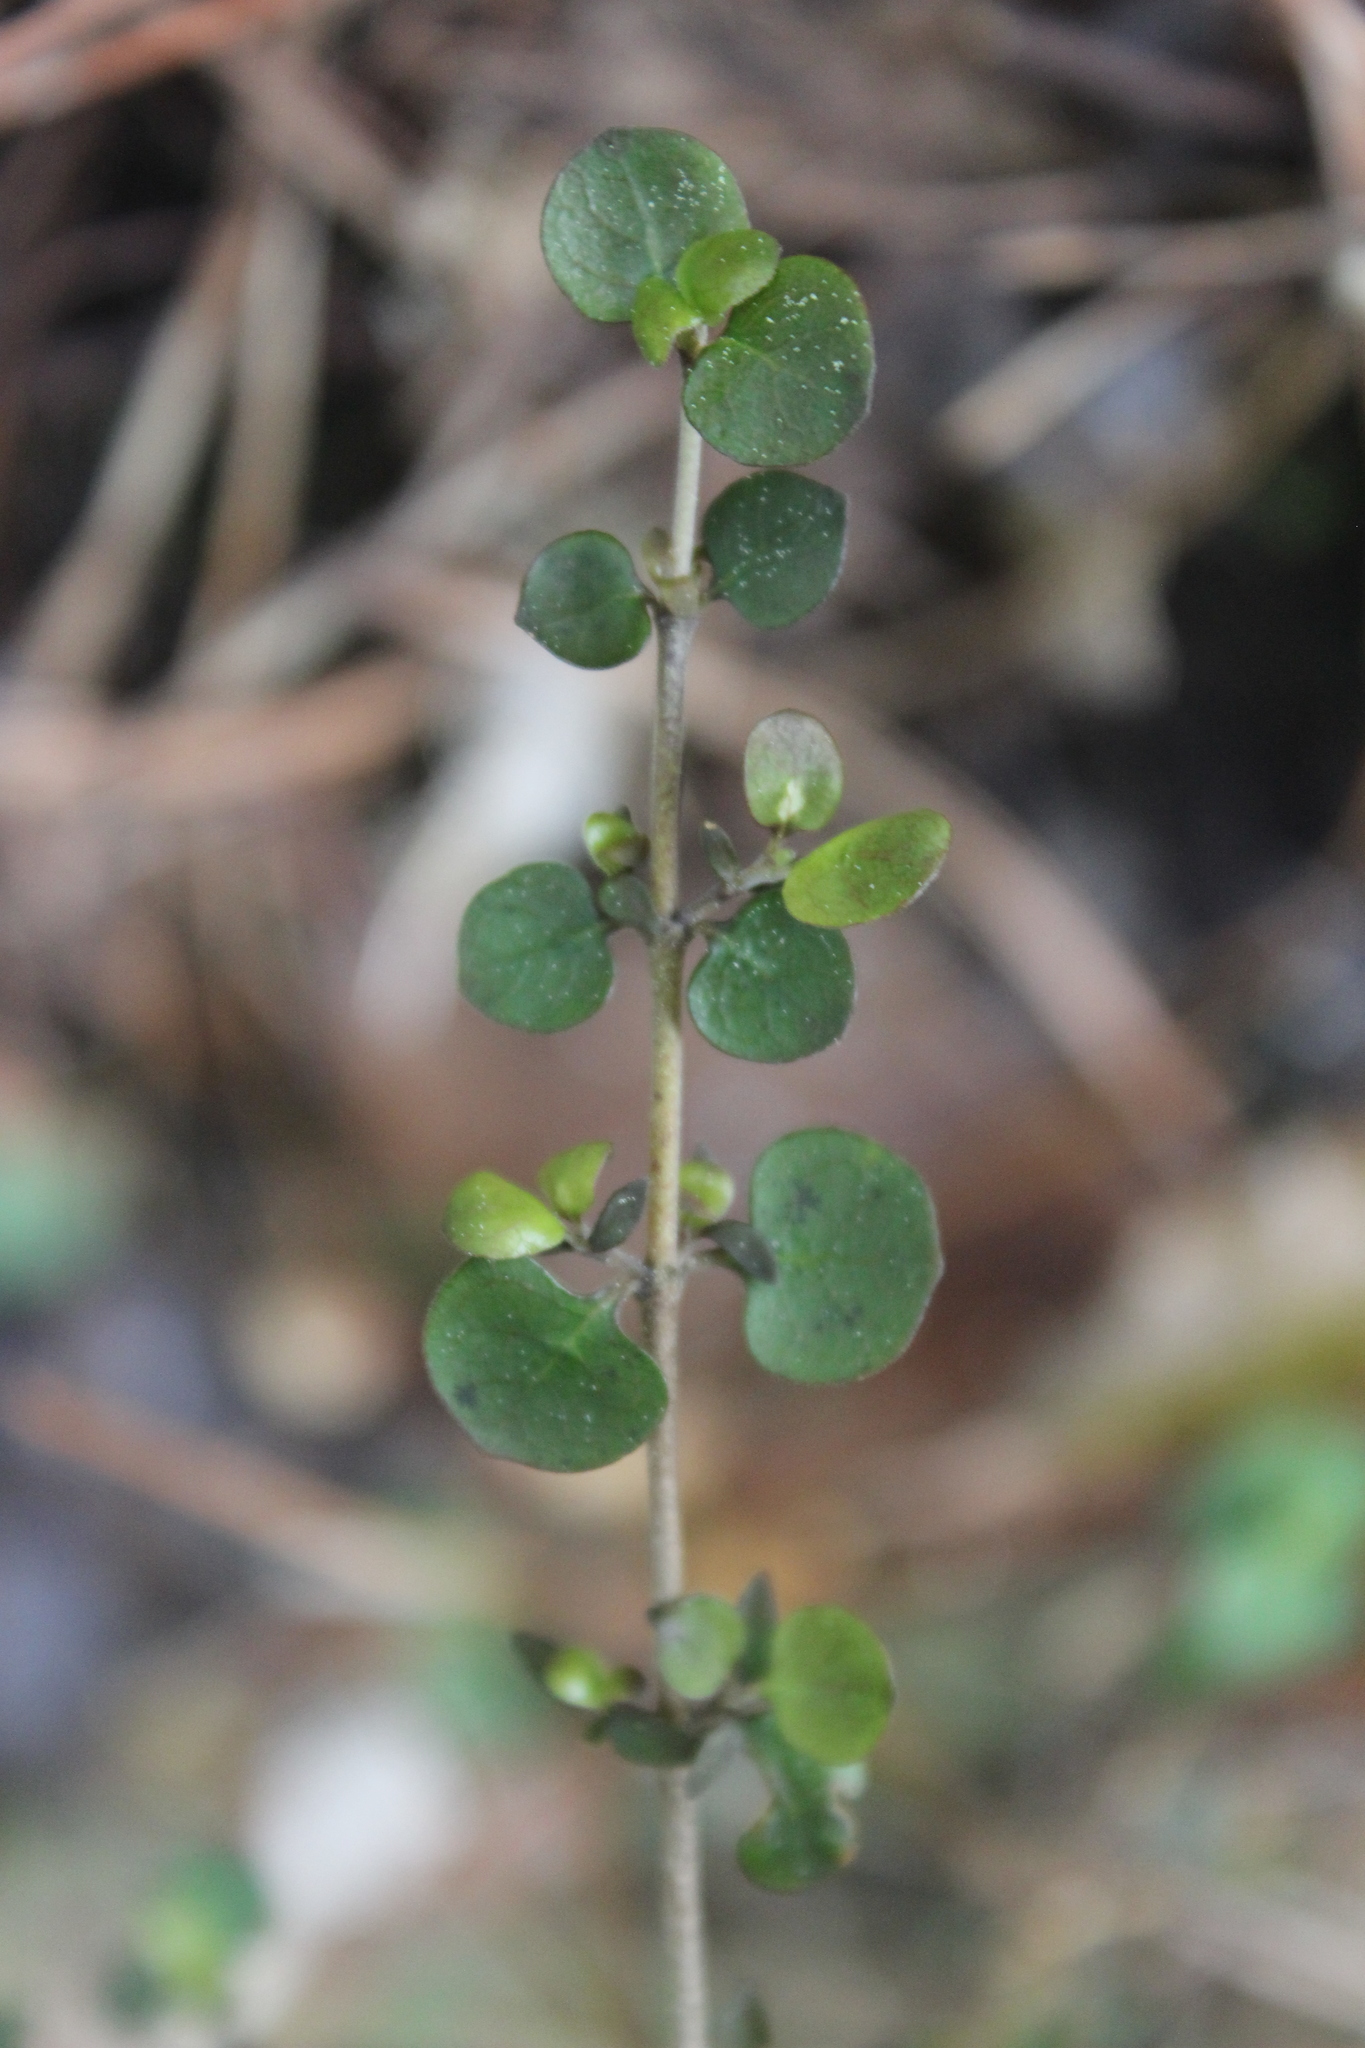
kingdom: Plantae
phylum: Tracheophyta
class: Magnoliopsida
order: Gentianales
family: Rubiaceae
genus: Coprosma
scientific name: Coprosma rhamnoides
